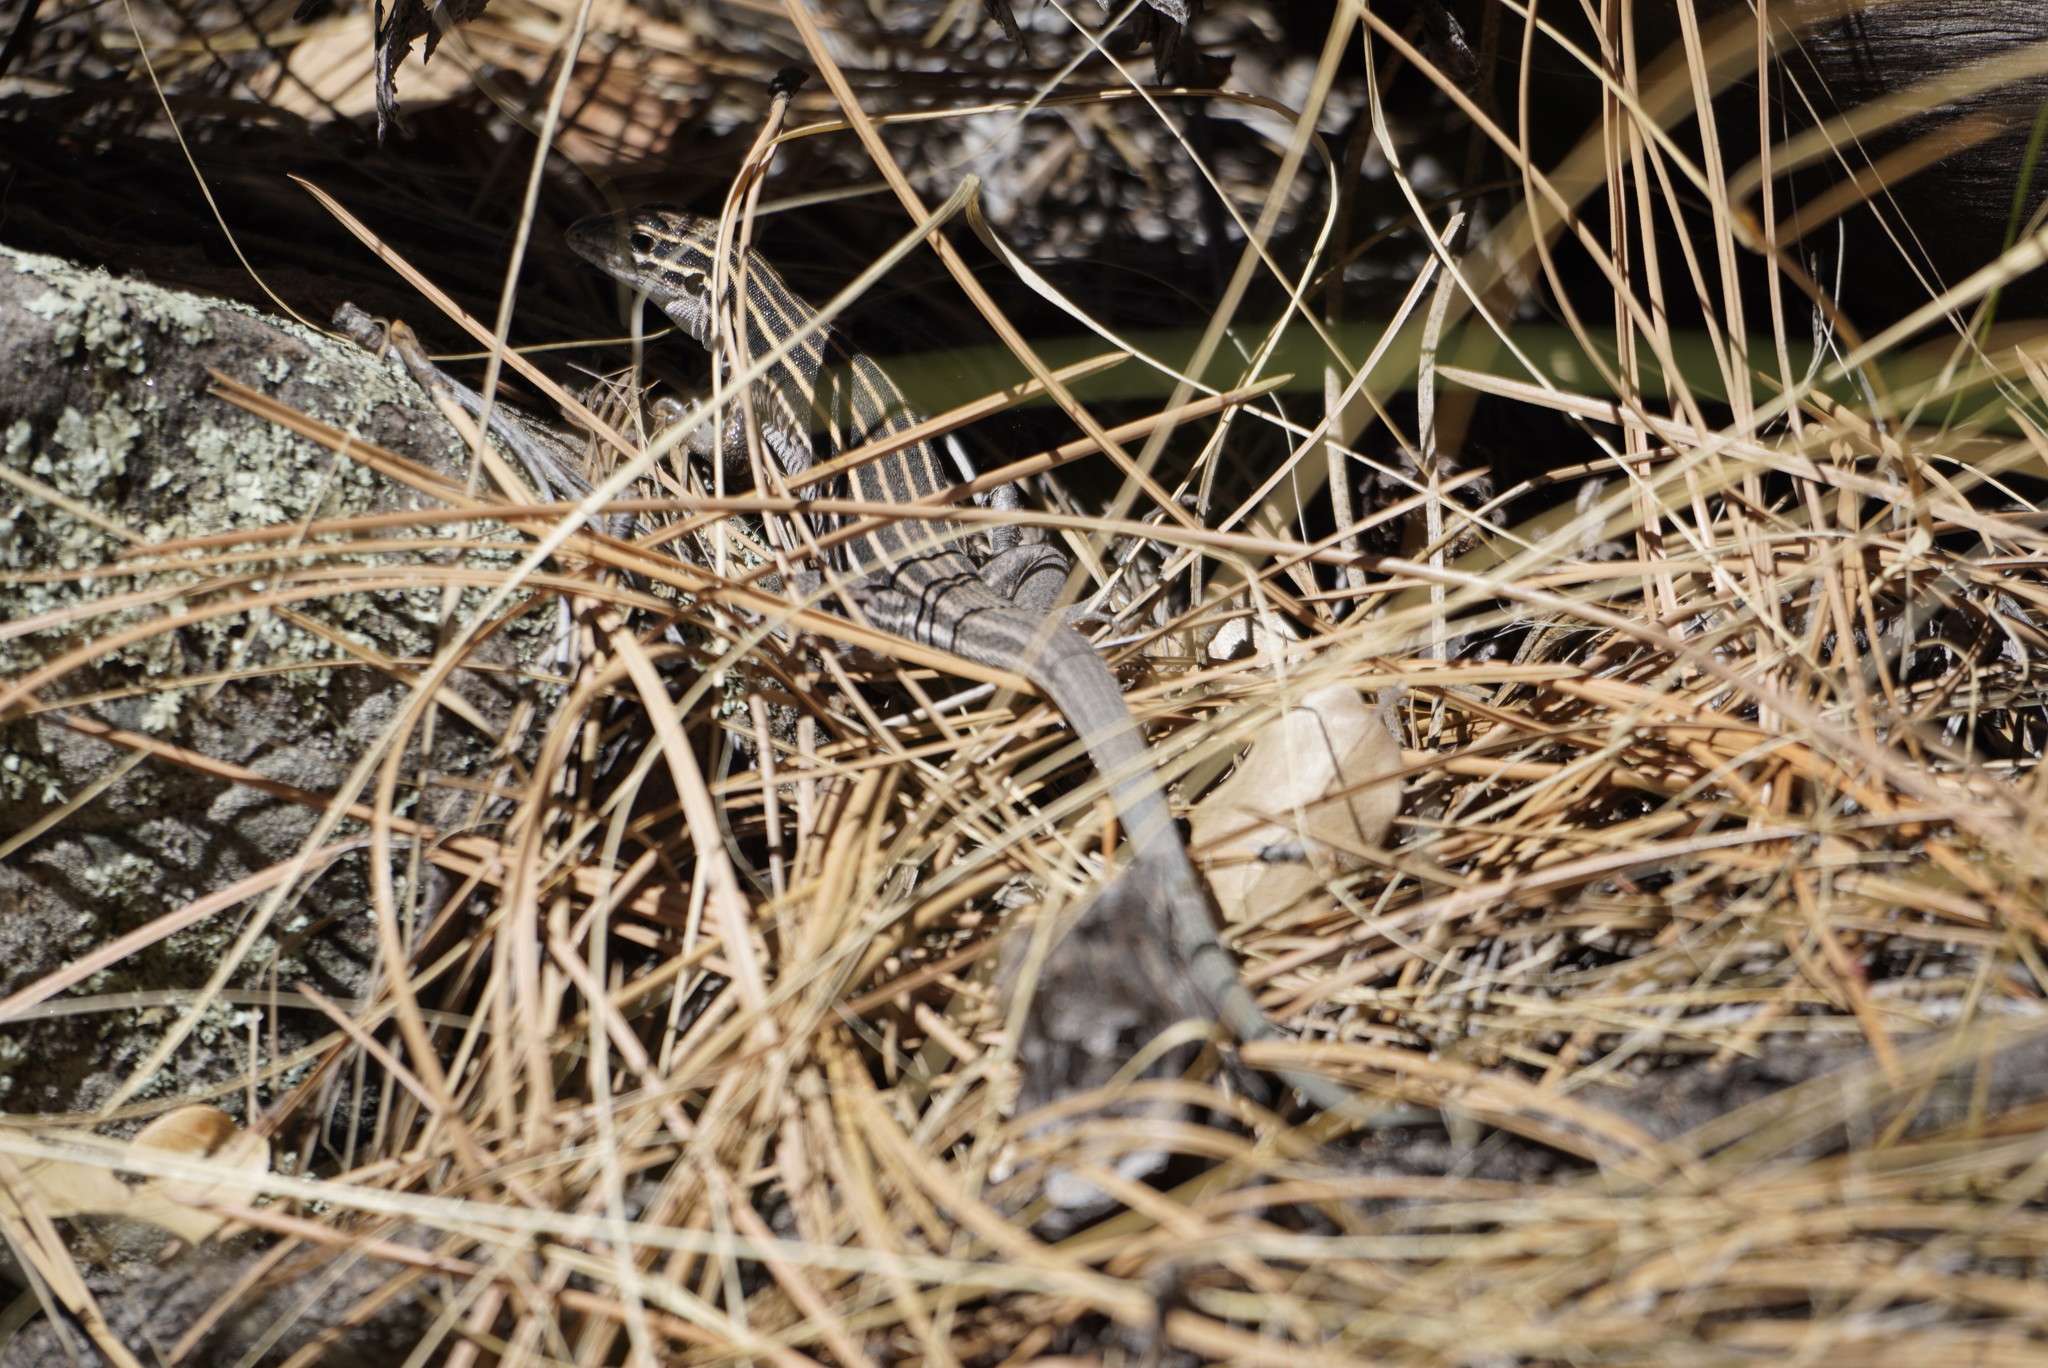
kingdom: Animalia
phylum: Chordata
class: Squamata
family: Teiidae
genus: Aspidoscelis
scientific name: Aspidoscelis velox
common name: Plateau striped whiptail
